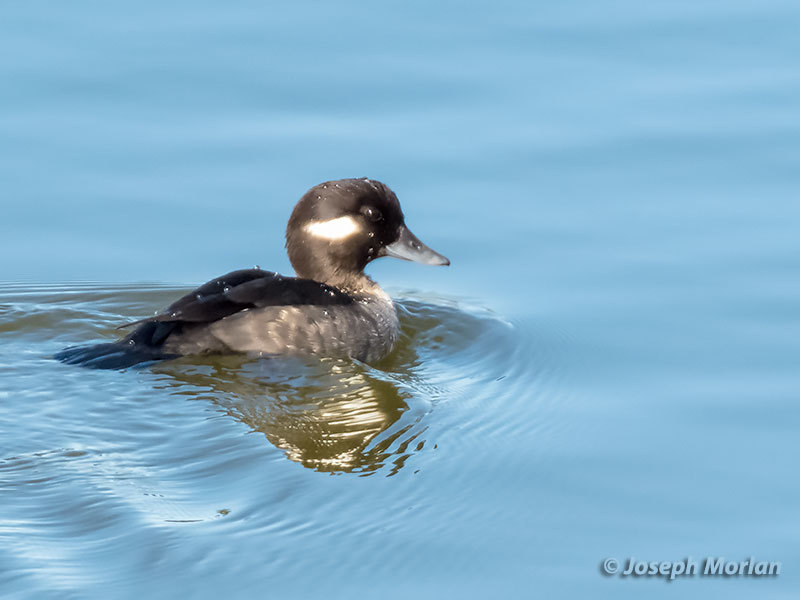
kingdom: Animalia
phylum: Chordata
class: Aves
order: Anseriformes
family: Anatidae
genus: Bucephala
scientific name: Bucephala albeola
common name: Bufflehead
